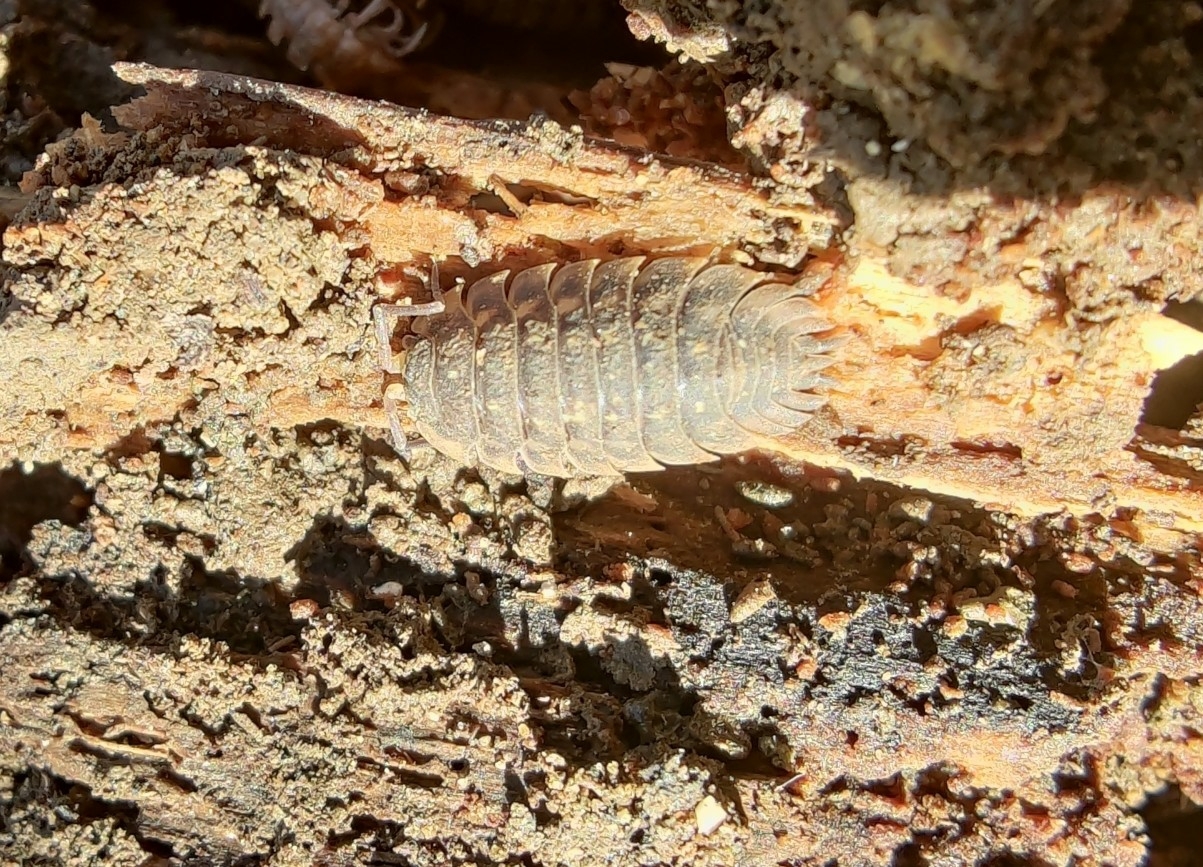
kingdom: Animalia
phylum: Arthropoda
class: Malacostraca
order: Isopoda
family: Oniscidae
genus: Oniscus
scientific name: Oniscus asellus
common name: Common shiny woodlouse
